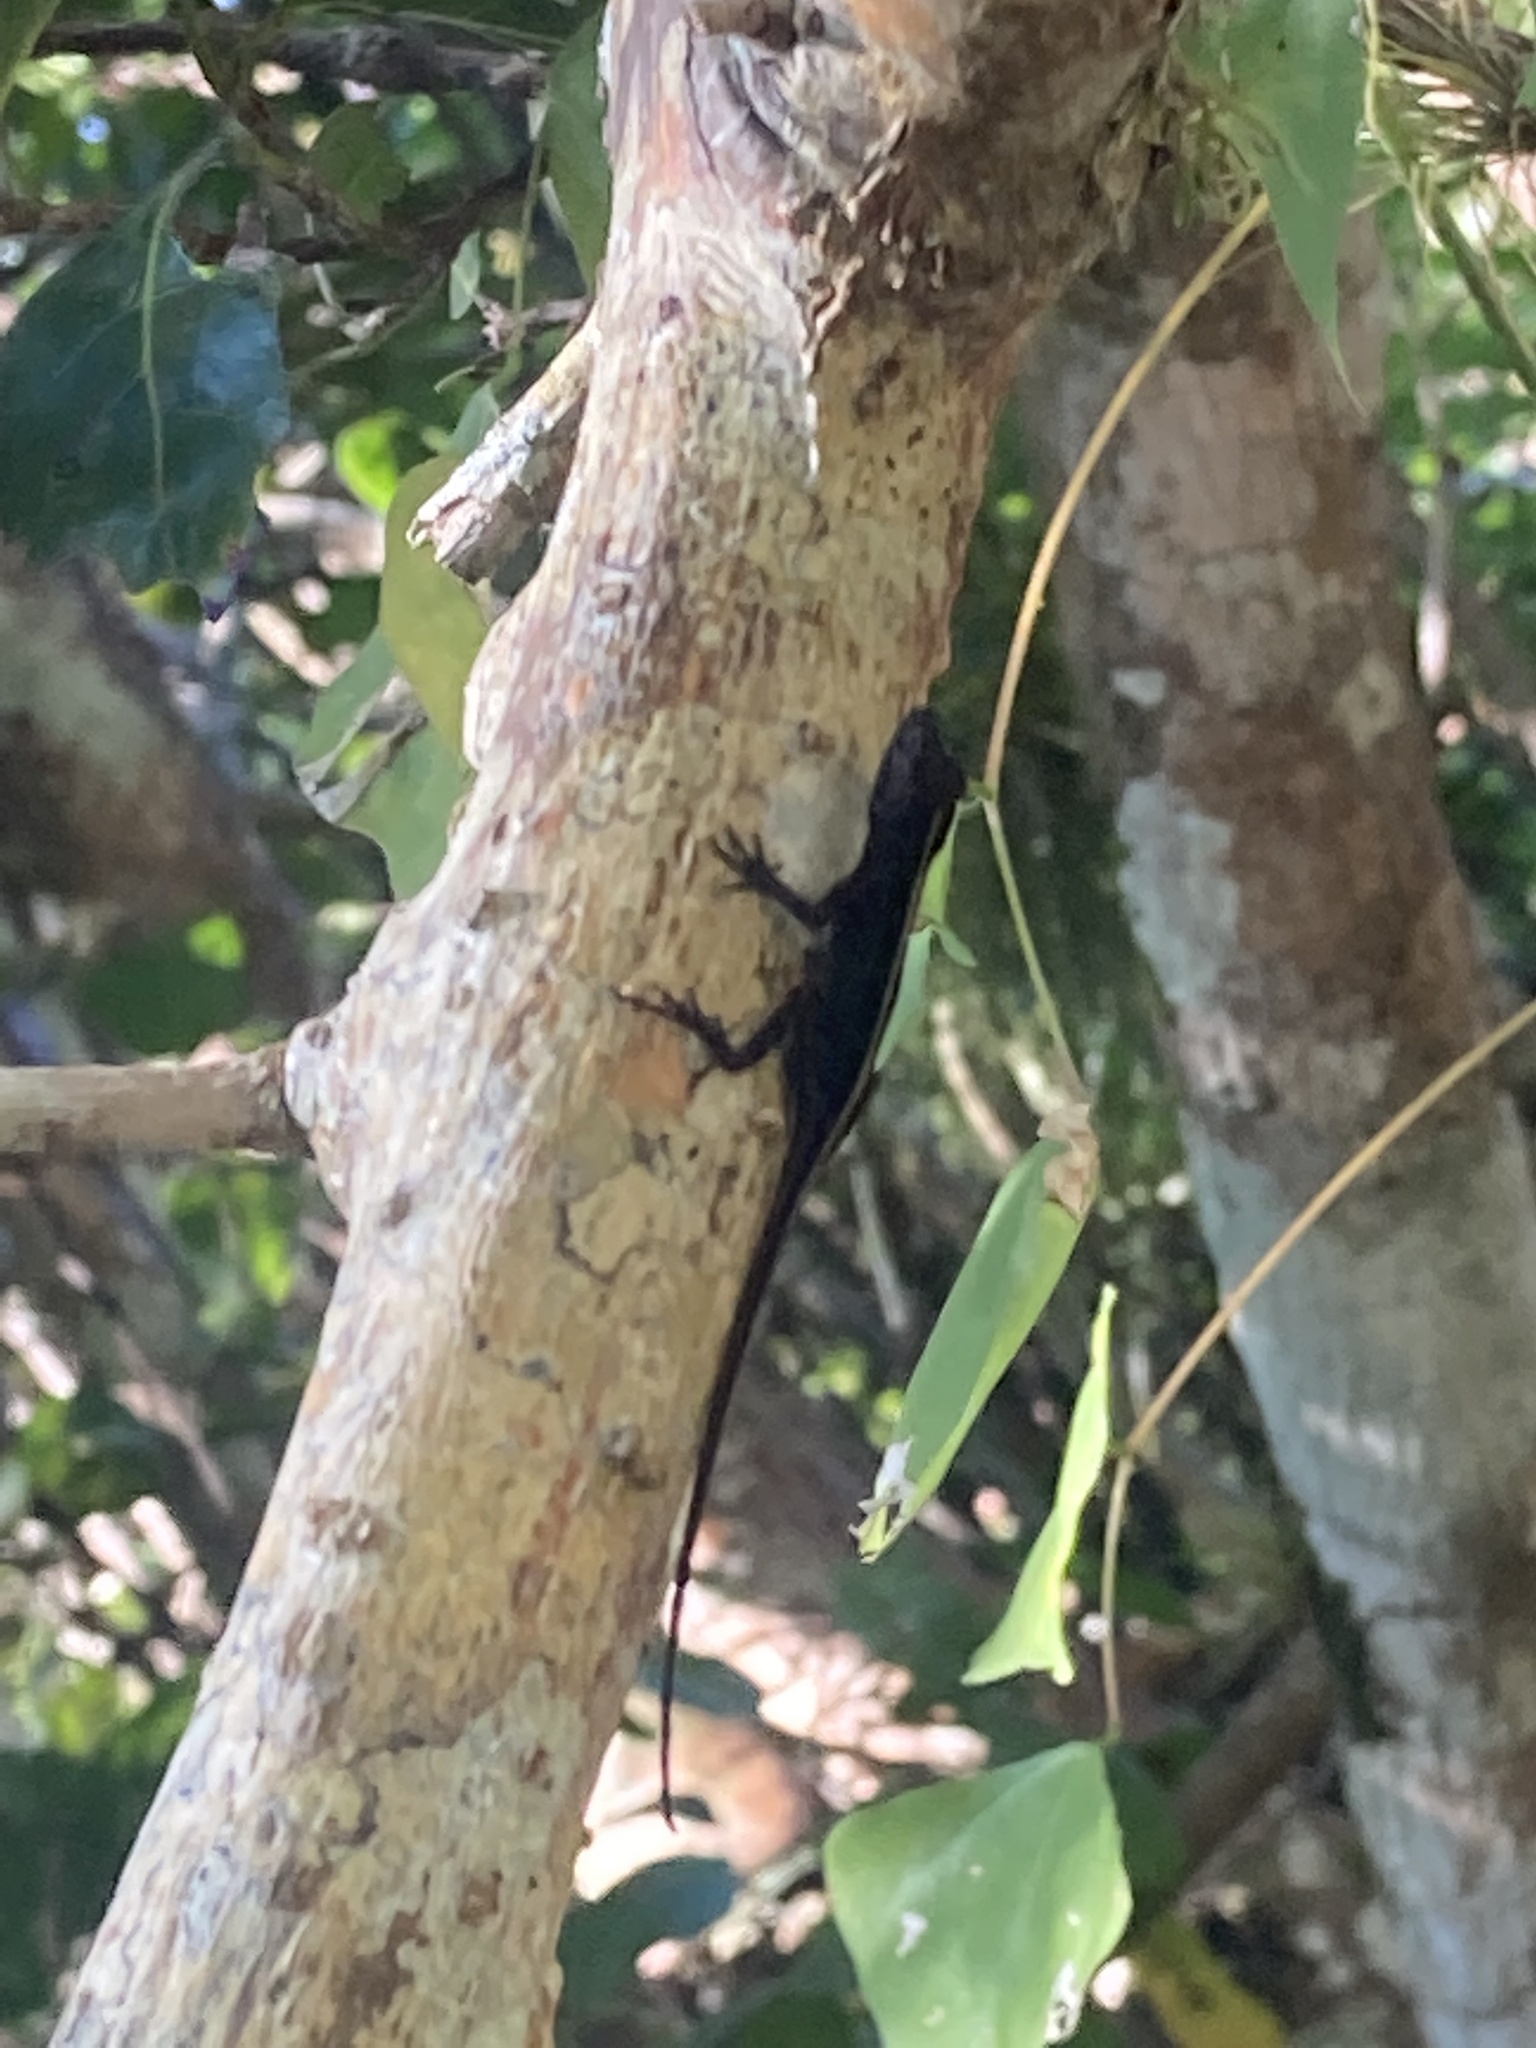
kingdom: Animalia
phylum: Chordata
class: Squamata
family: Dactyloidae
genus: Anolis
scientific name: Anolis sagrei
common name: Brown anole
